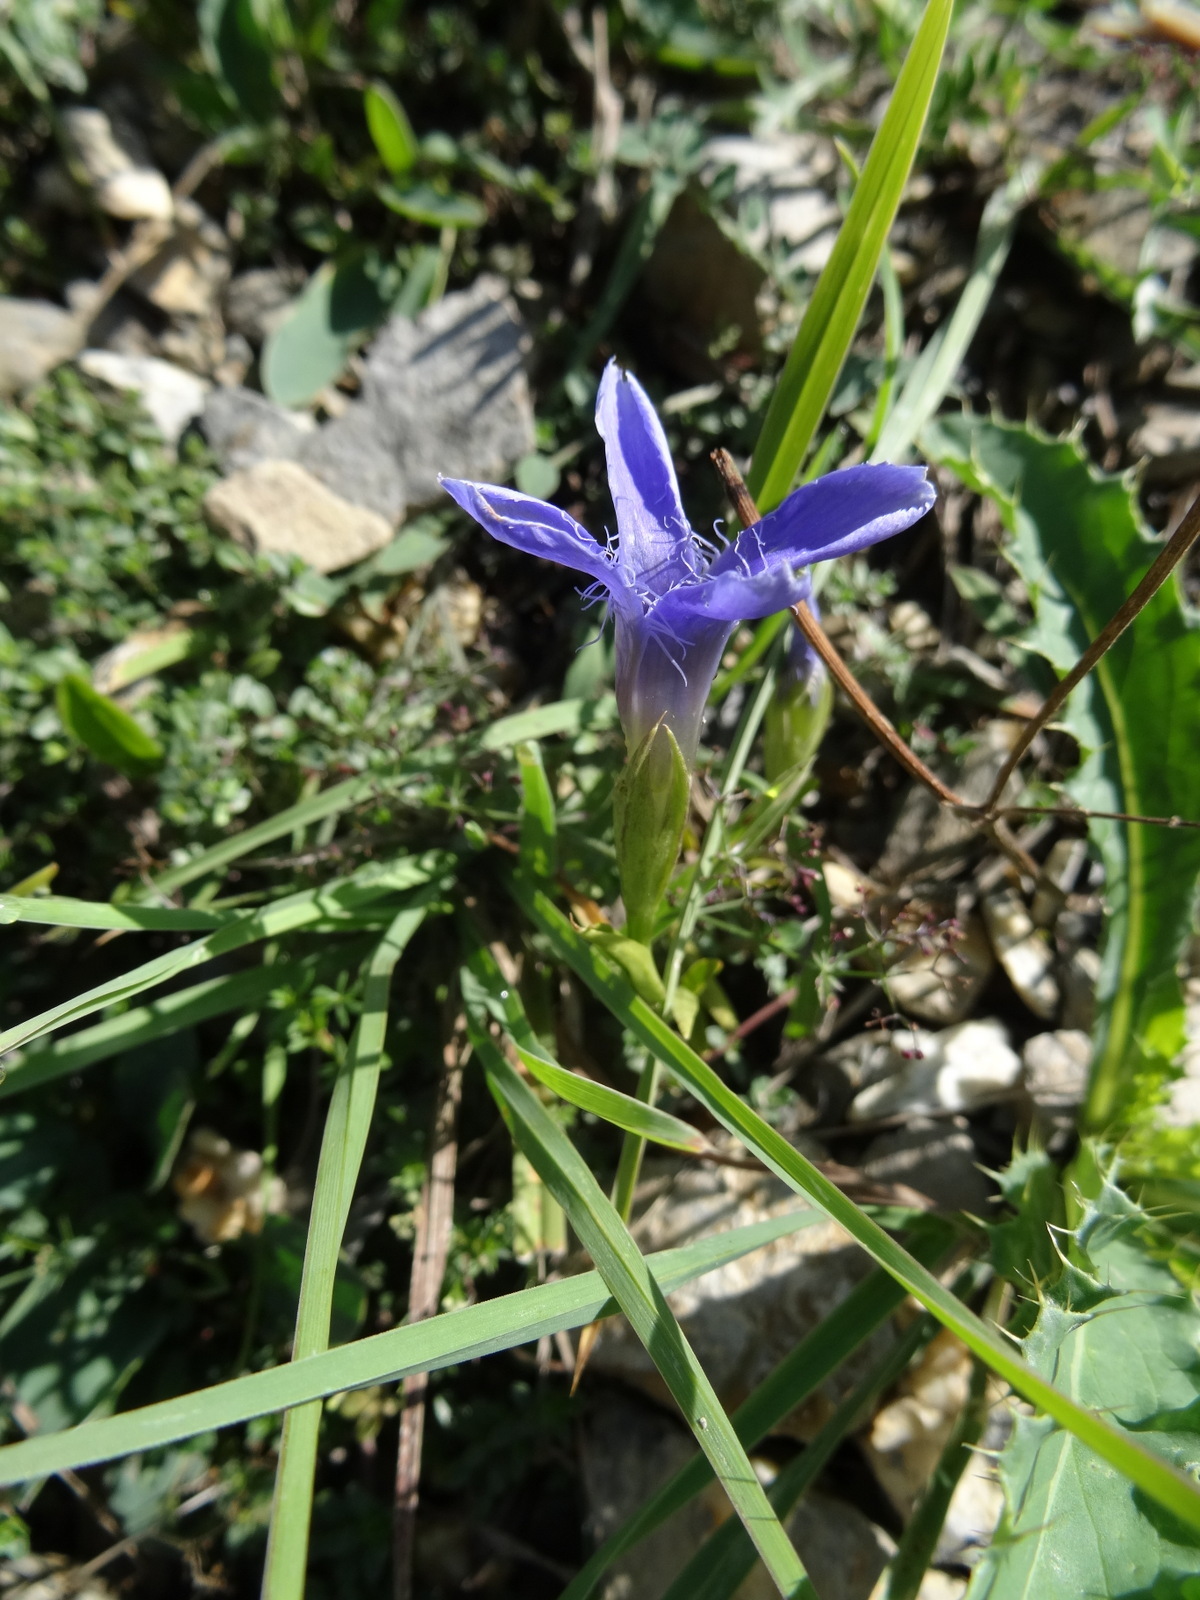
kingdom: Plantae
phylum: Tracheophyta
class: Magnoliopsida
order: Gentianales
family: Gentianaceae
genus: Gentianopsis
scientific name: Gentianopsis ciliata
